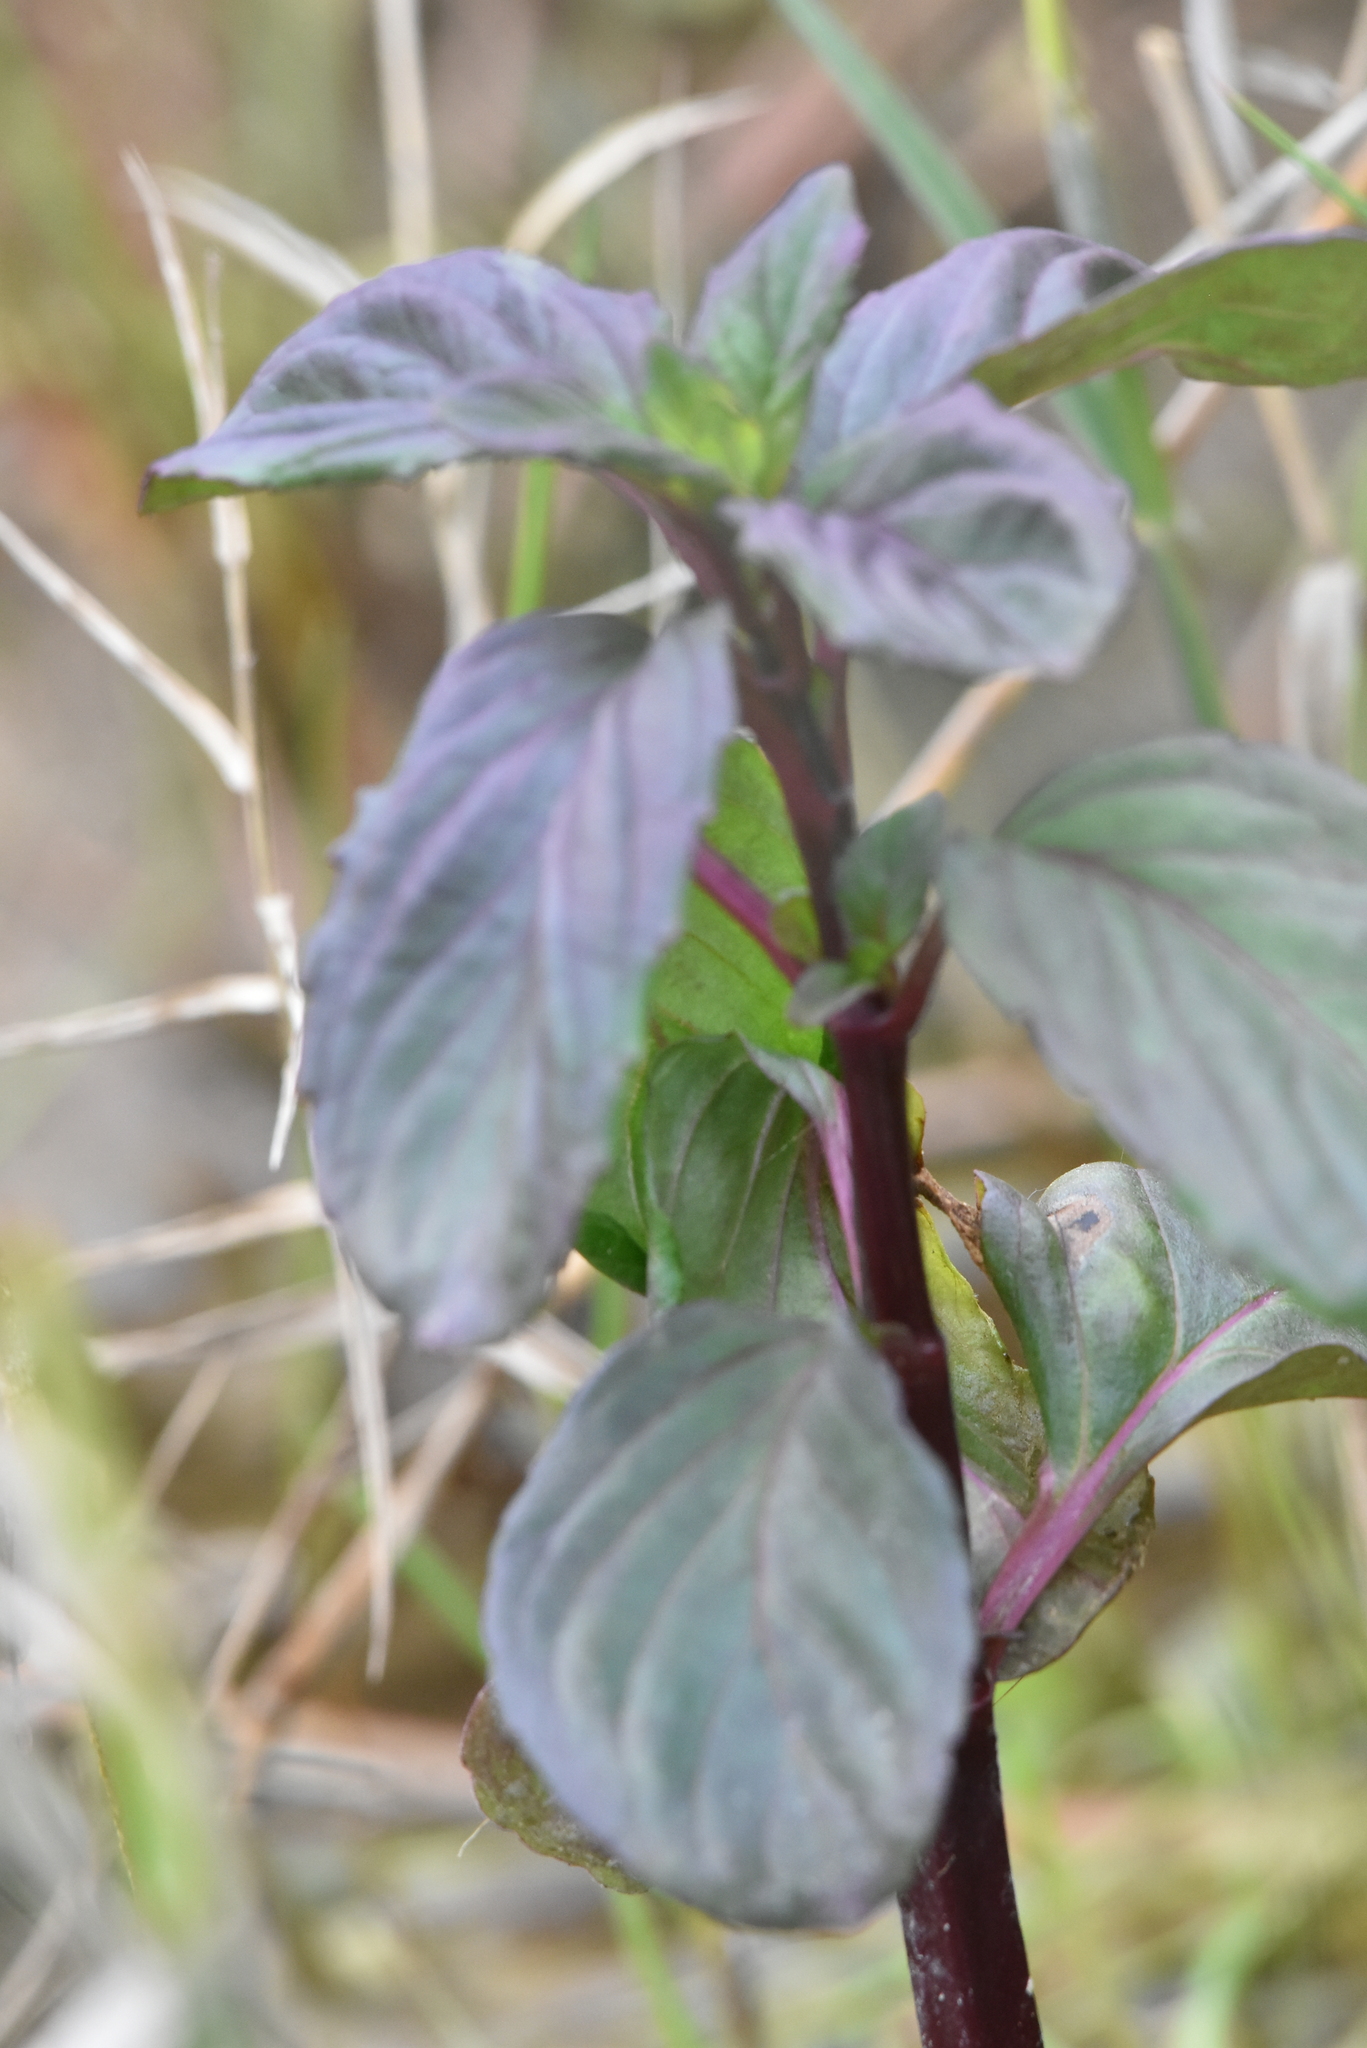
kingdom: Plantae
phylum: Tracheophyta
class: Magnoliopsida
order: Lamiales
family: Lamiaceae
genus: Mentha
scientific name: Mentha aquatica
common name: Water mint
